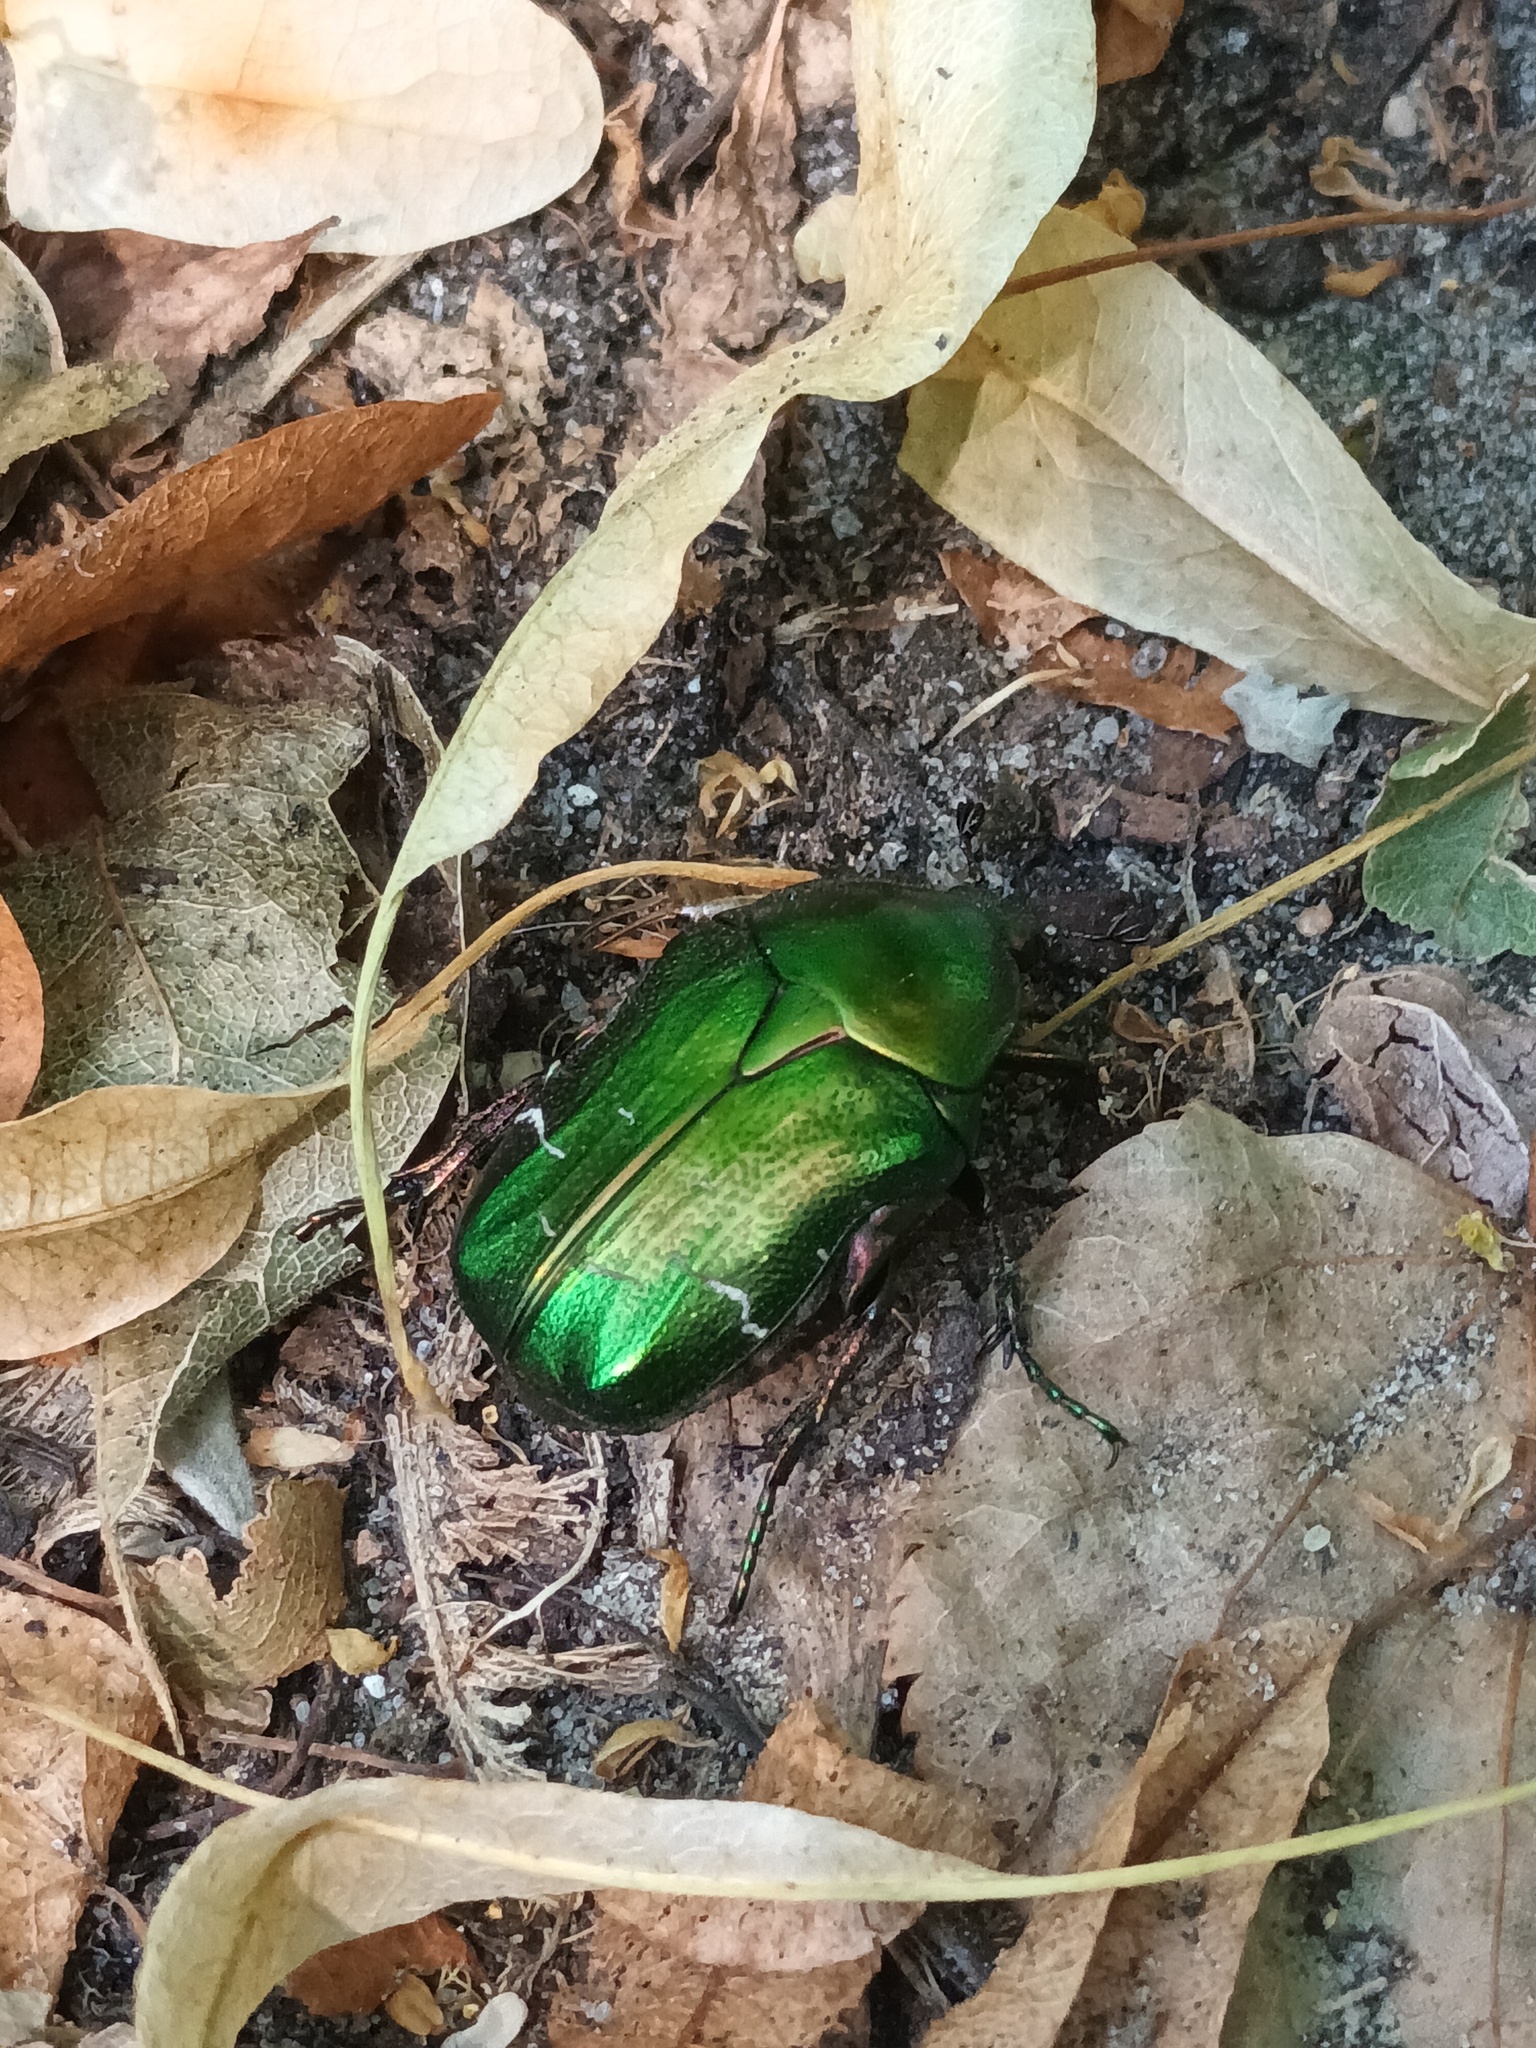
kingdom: Animalia
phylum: Arthropoda
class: Insecta
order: Coleoptera
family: Scarabaeidae
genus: Cetonia
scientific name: Cetonia aurata
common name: Rose chafer
